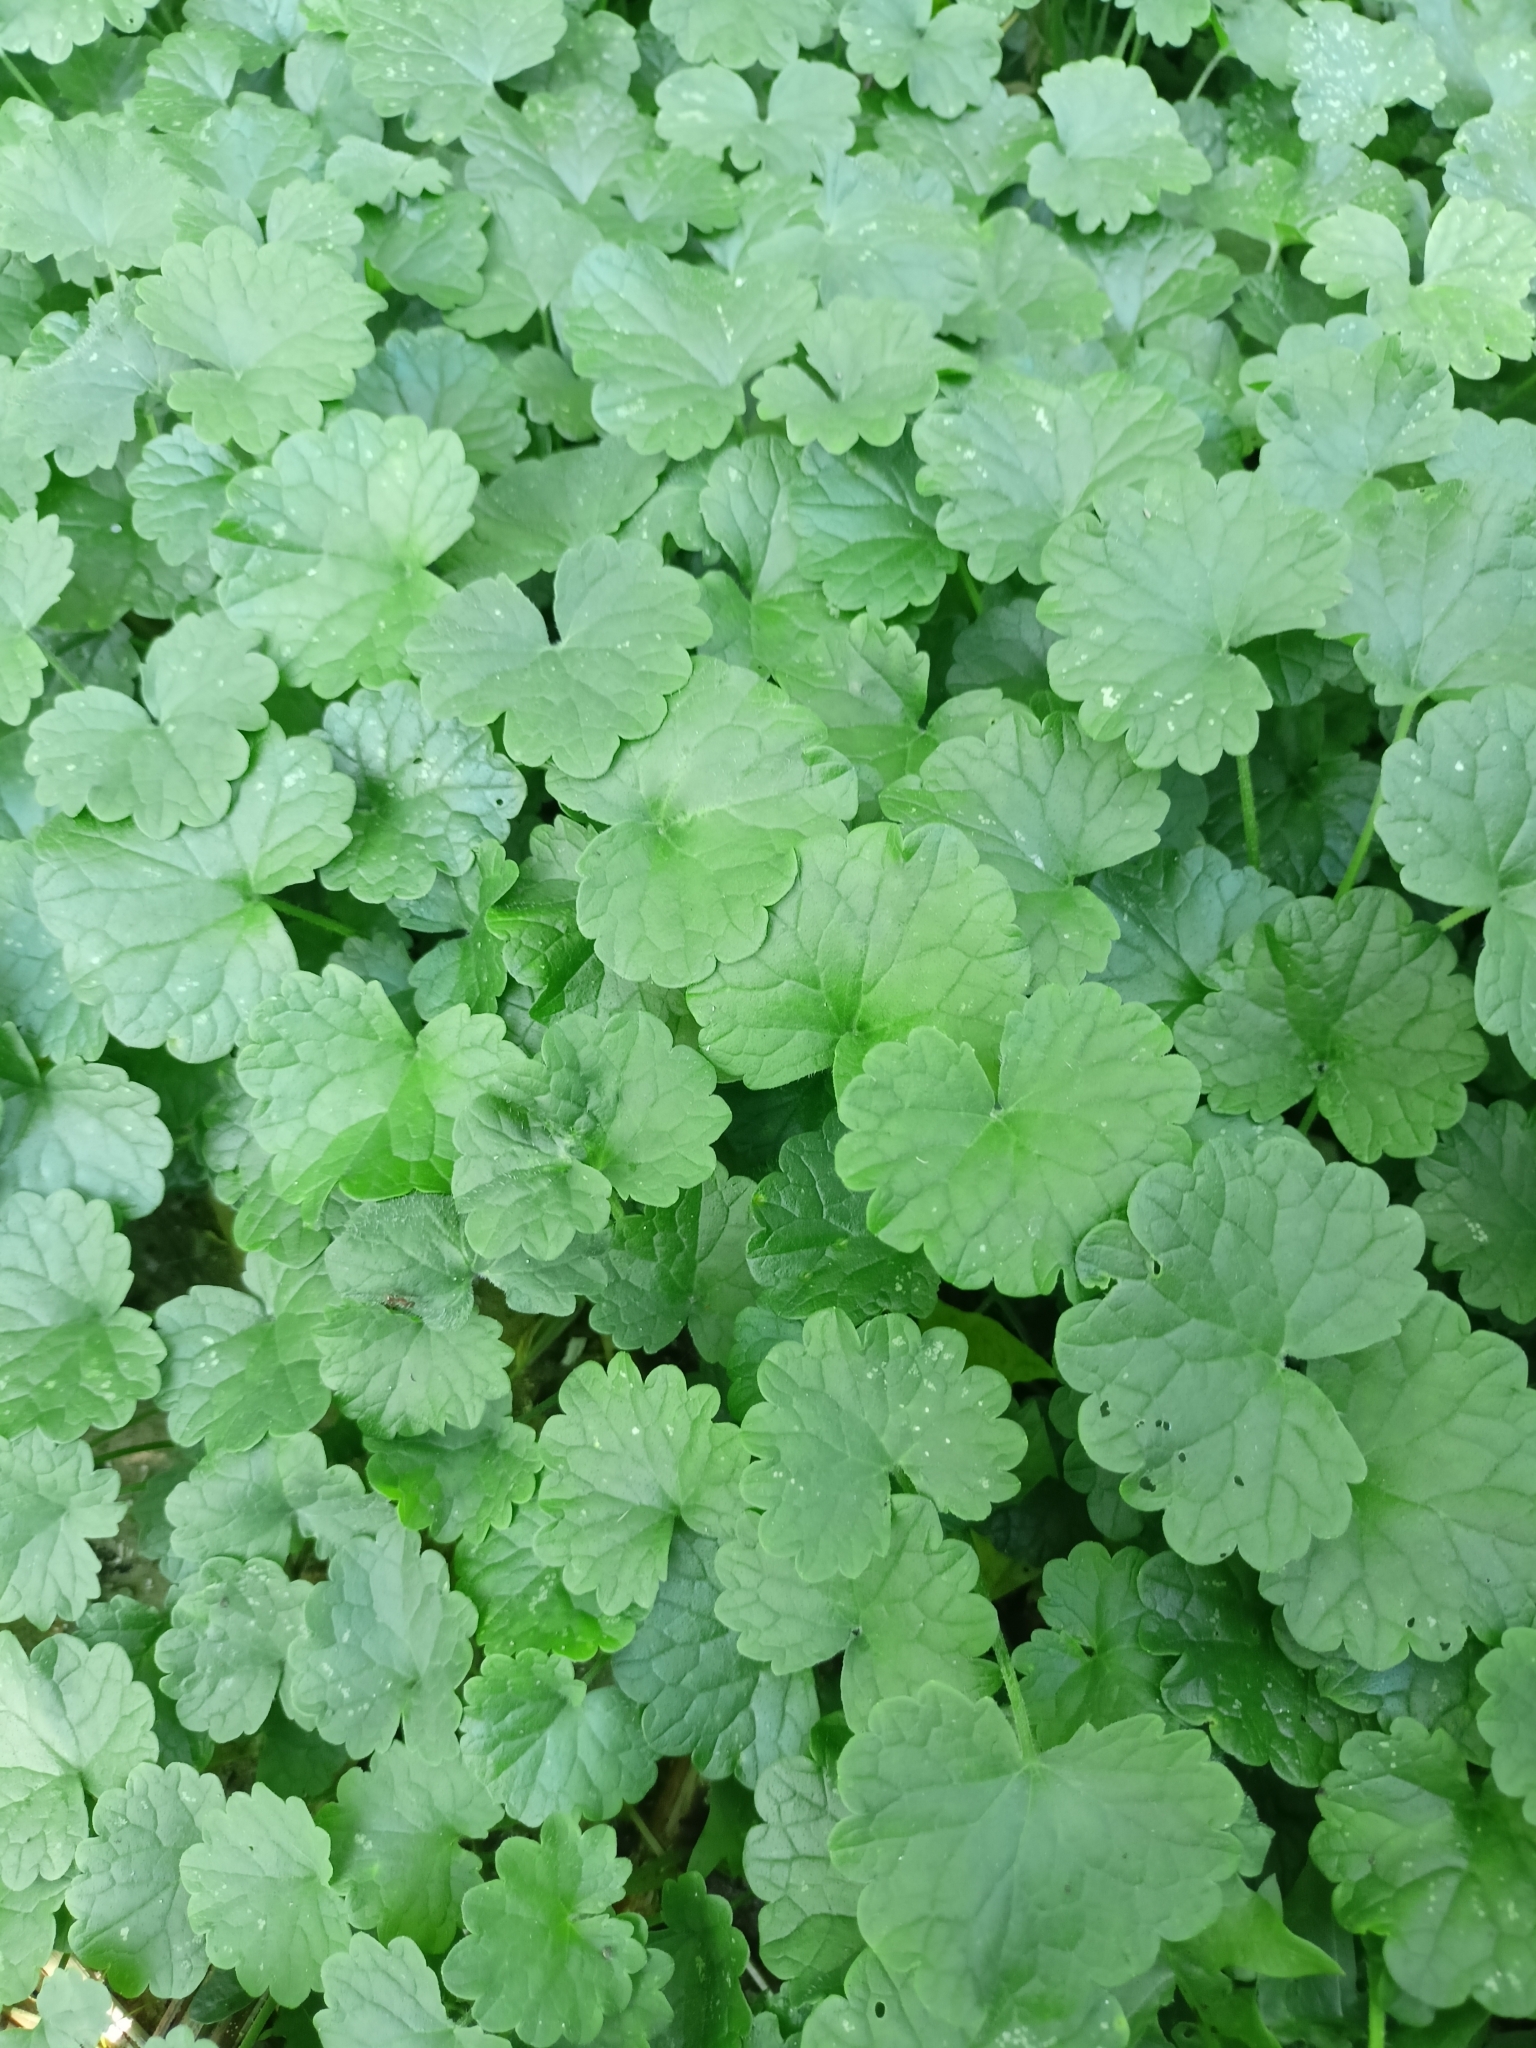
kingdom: Plantae
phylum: Tracheophyta
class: Magnoliopsida
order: Lamiales
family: Lamiaceae
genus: Glechoma
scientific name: Glechoma hederacea
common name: Ground ivy
